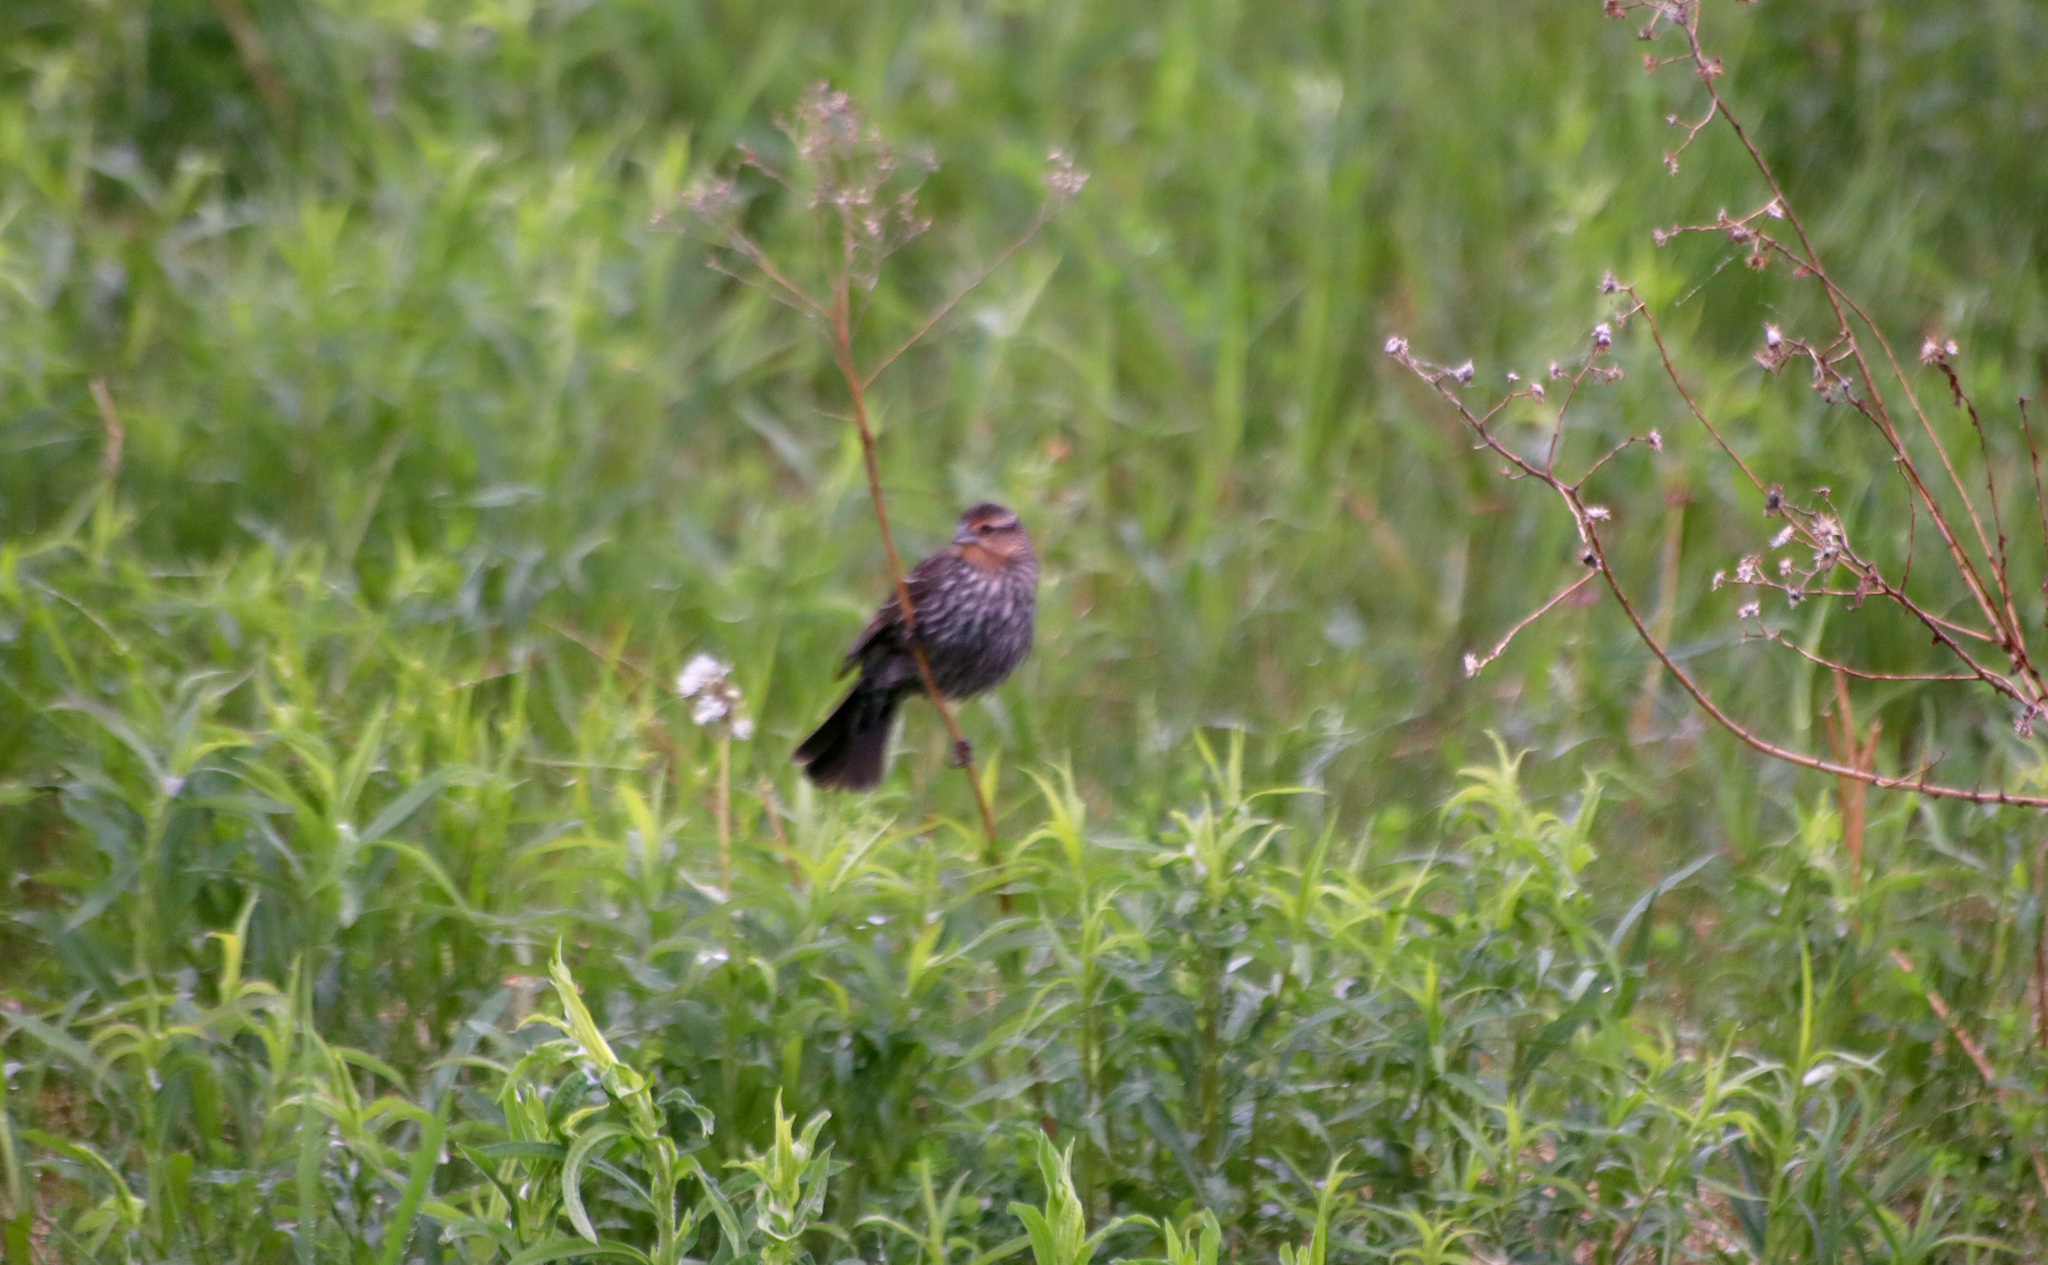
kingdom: Animalia
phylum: Chordata
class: Aves
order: Passeriformes
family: Icteridae
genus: Agelaius
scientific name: Agelaius phoeniceus
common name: Red-winged blackbird
